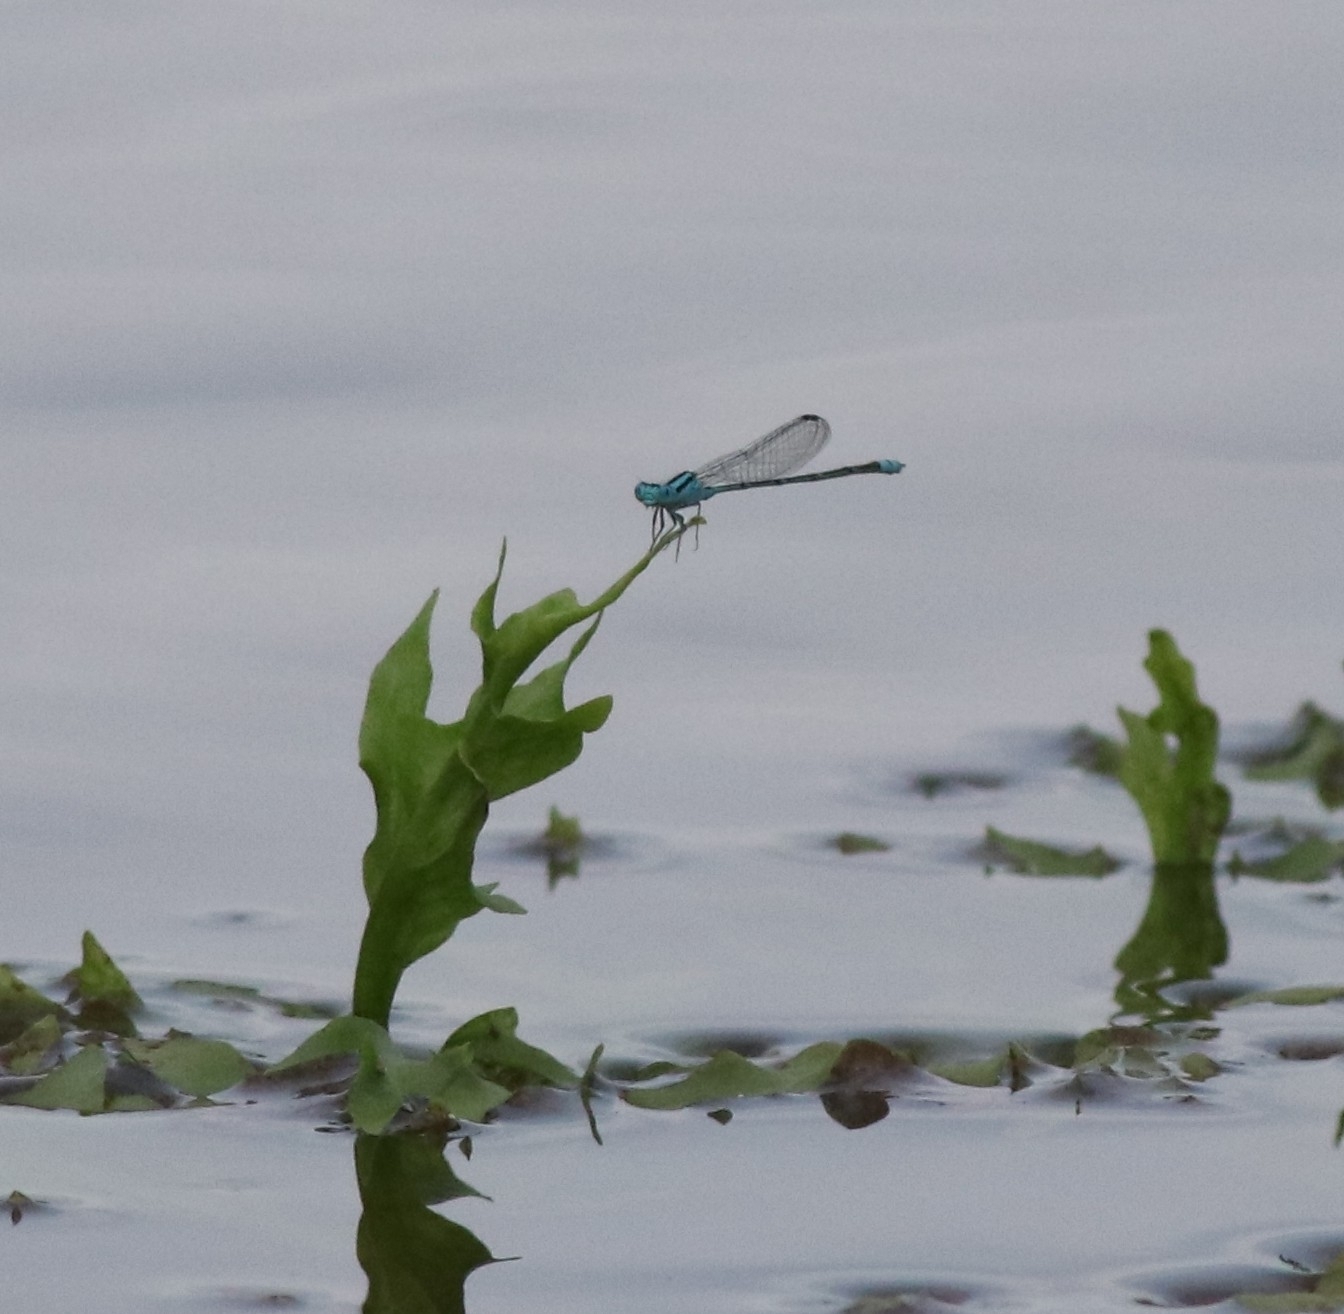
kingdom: Animalia
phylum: Arthropoda
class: Insecta
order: Odonata
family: Coenagrionidae
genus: Pseudagrion
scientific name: Pseudagrion microcephalum
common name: Blue riverdamsel
